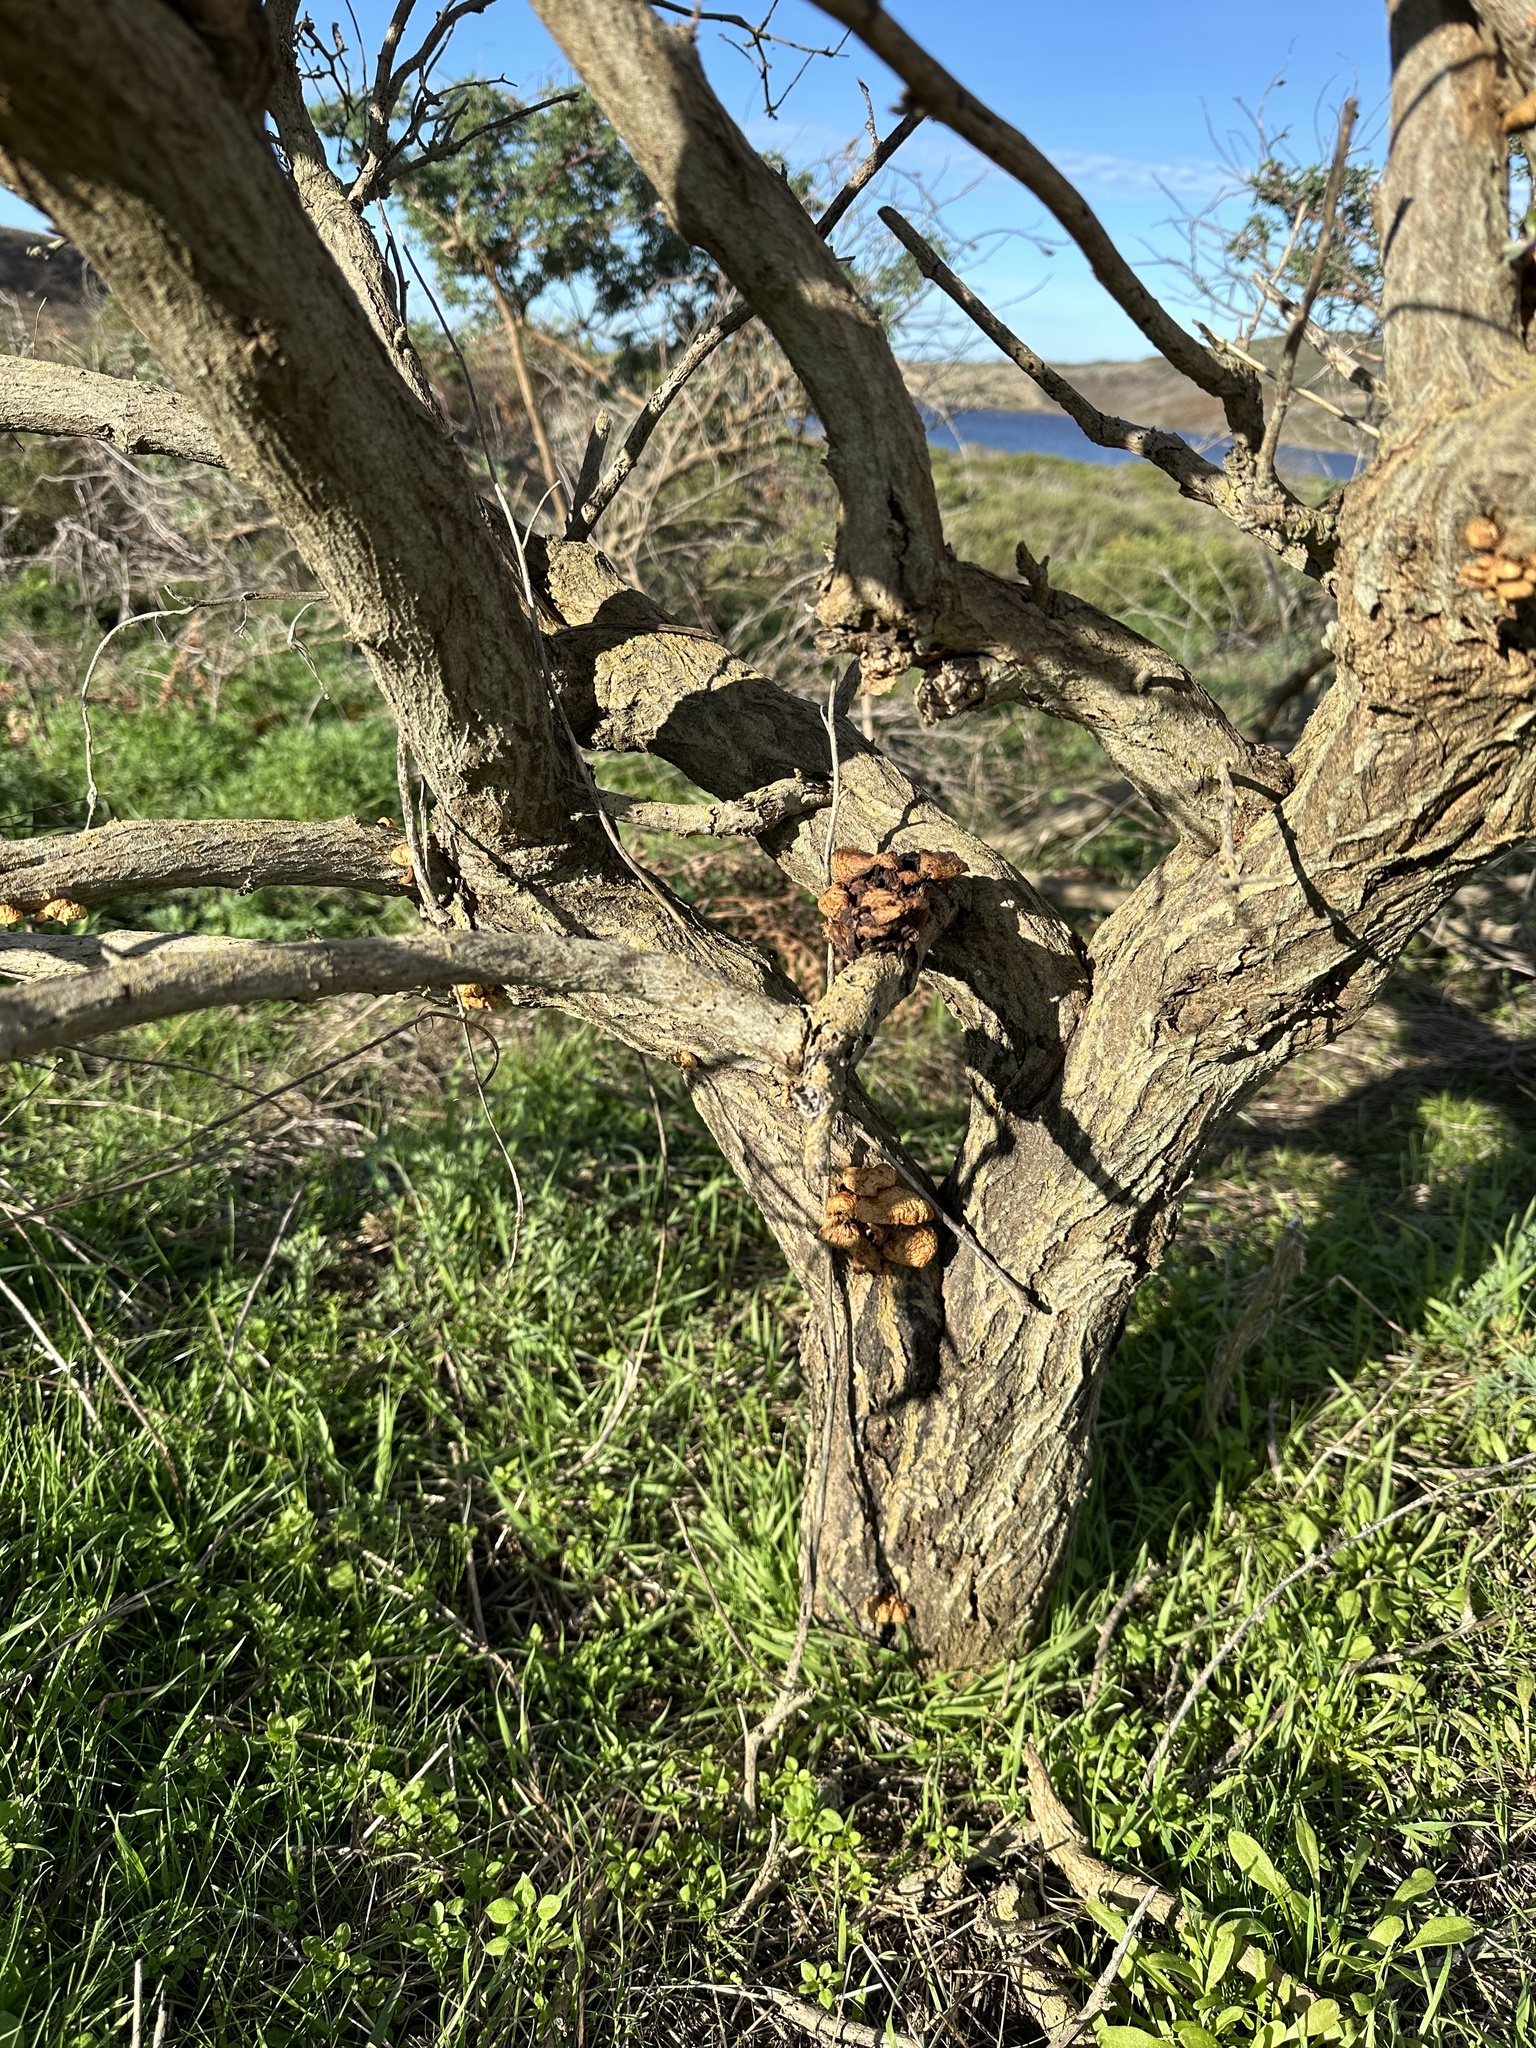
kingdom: Fungi
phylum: Basidiomycota
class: Agaricomycetes
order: Agaricales
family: Physalacriaceae
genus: Flammulina
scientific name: Flammulina lupinicola
